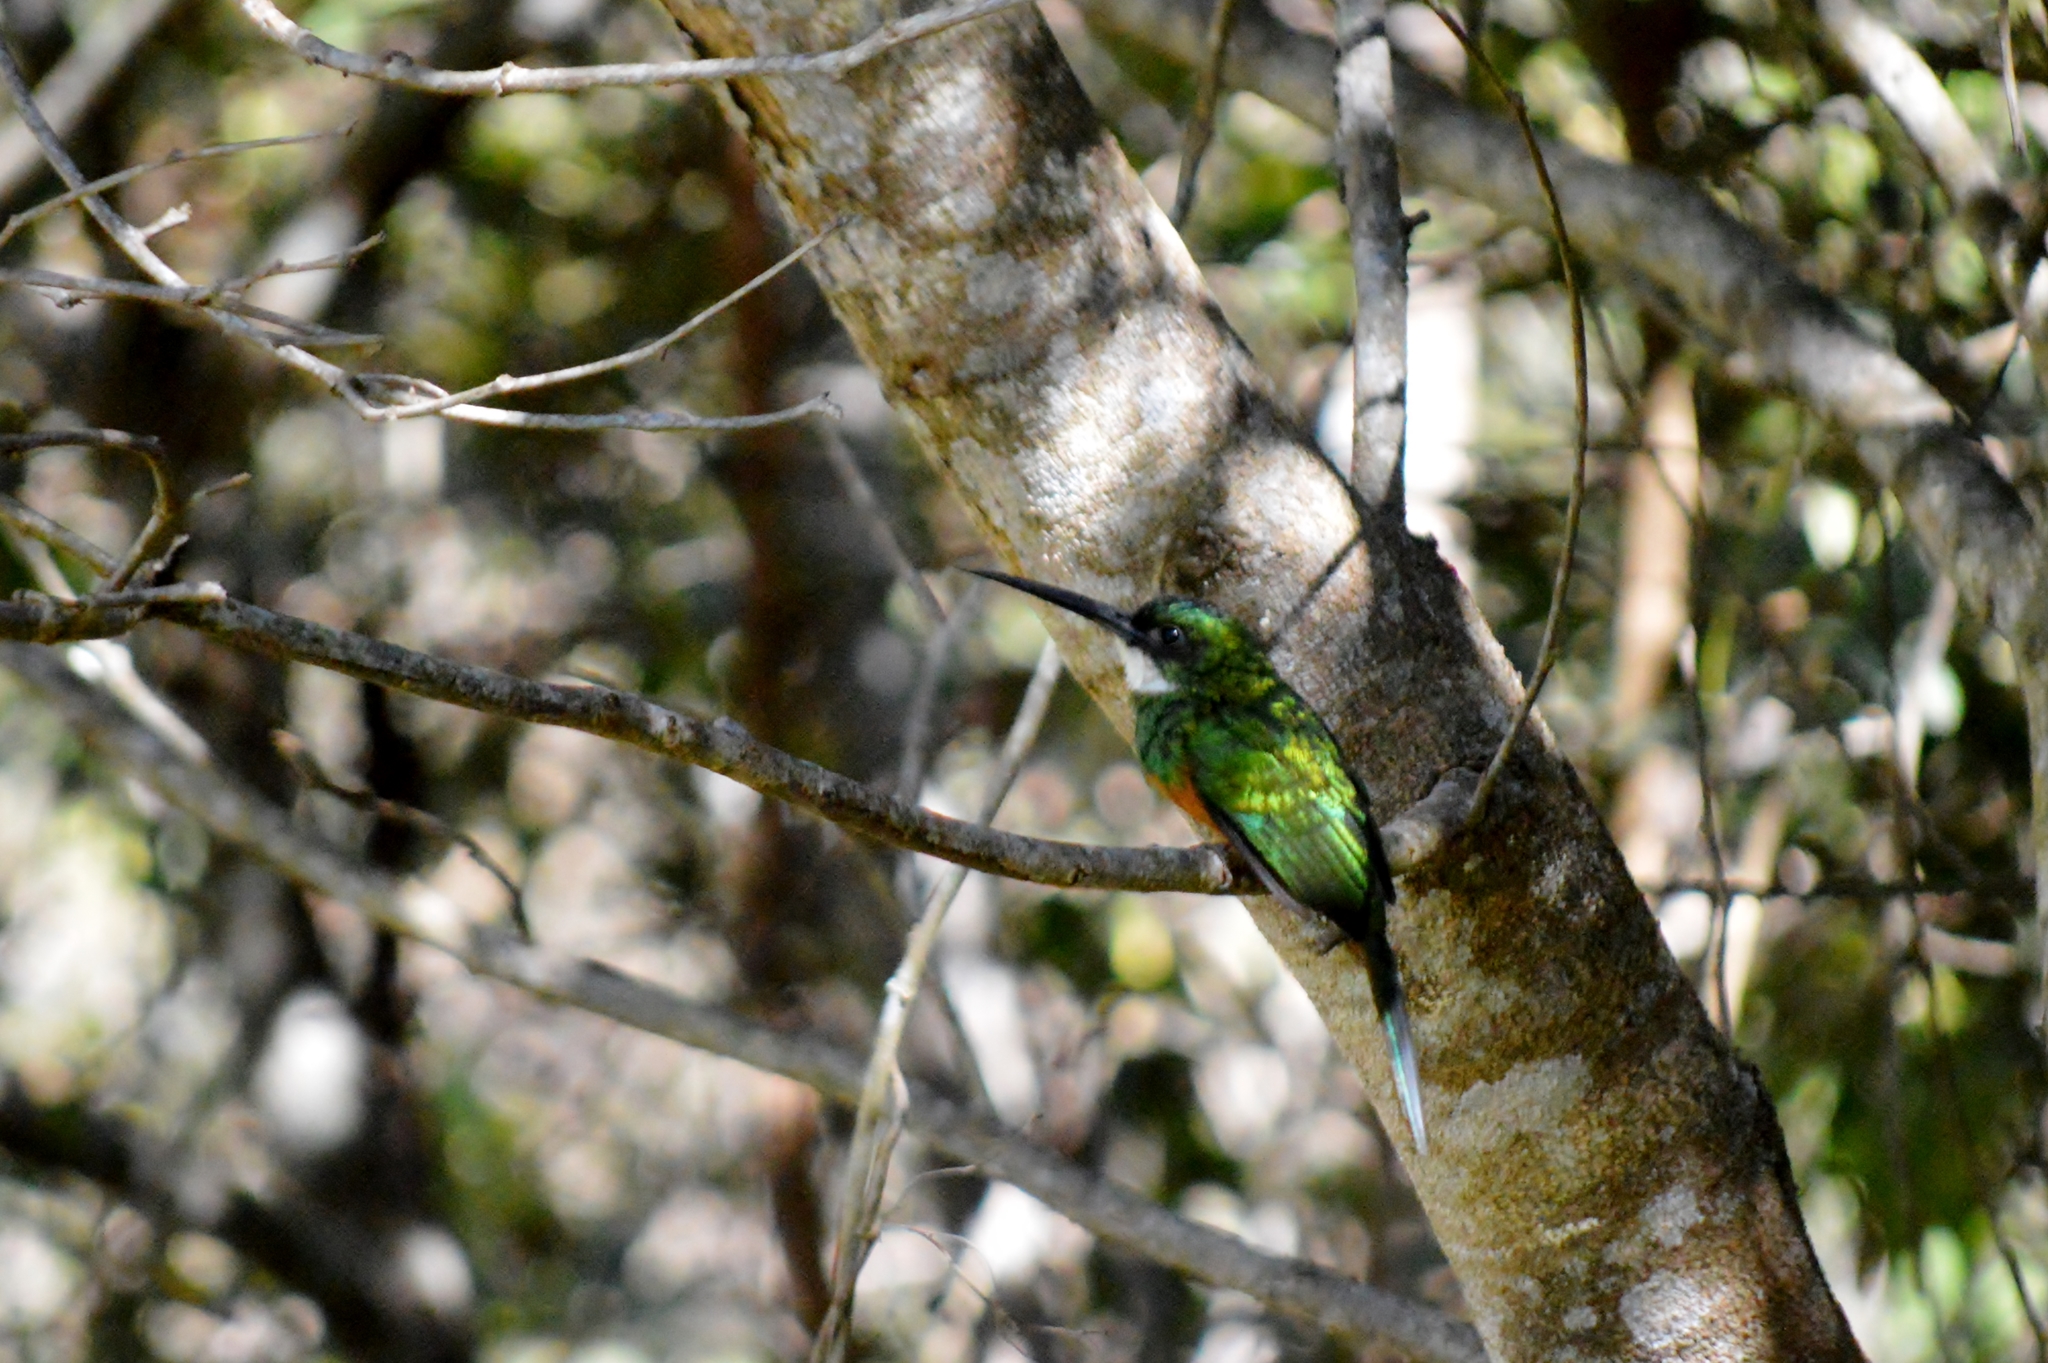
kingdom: Animalia
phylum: Chordata
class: Aves
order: Piciformes
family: Galbulidae
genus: Galbula
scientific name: Galbula ruficauda
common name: Rufous-tailed jacamar
